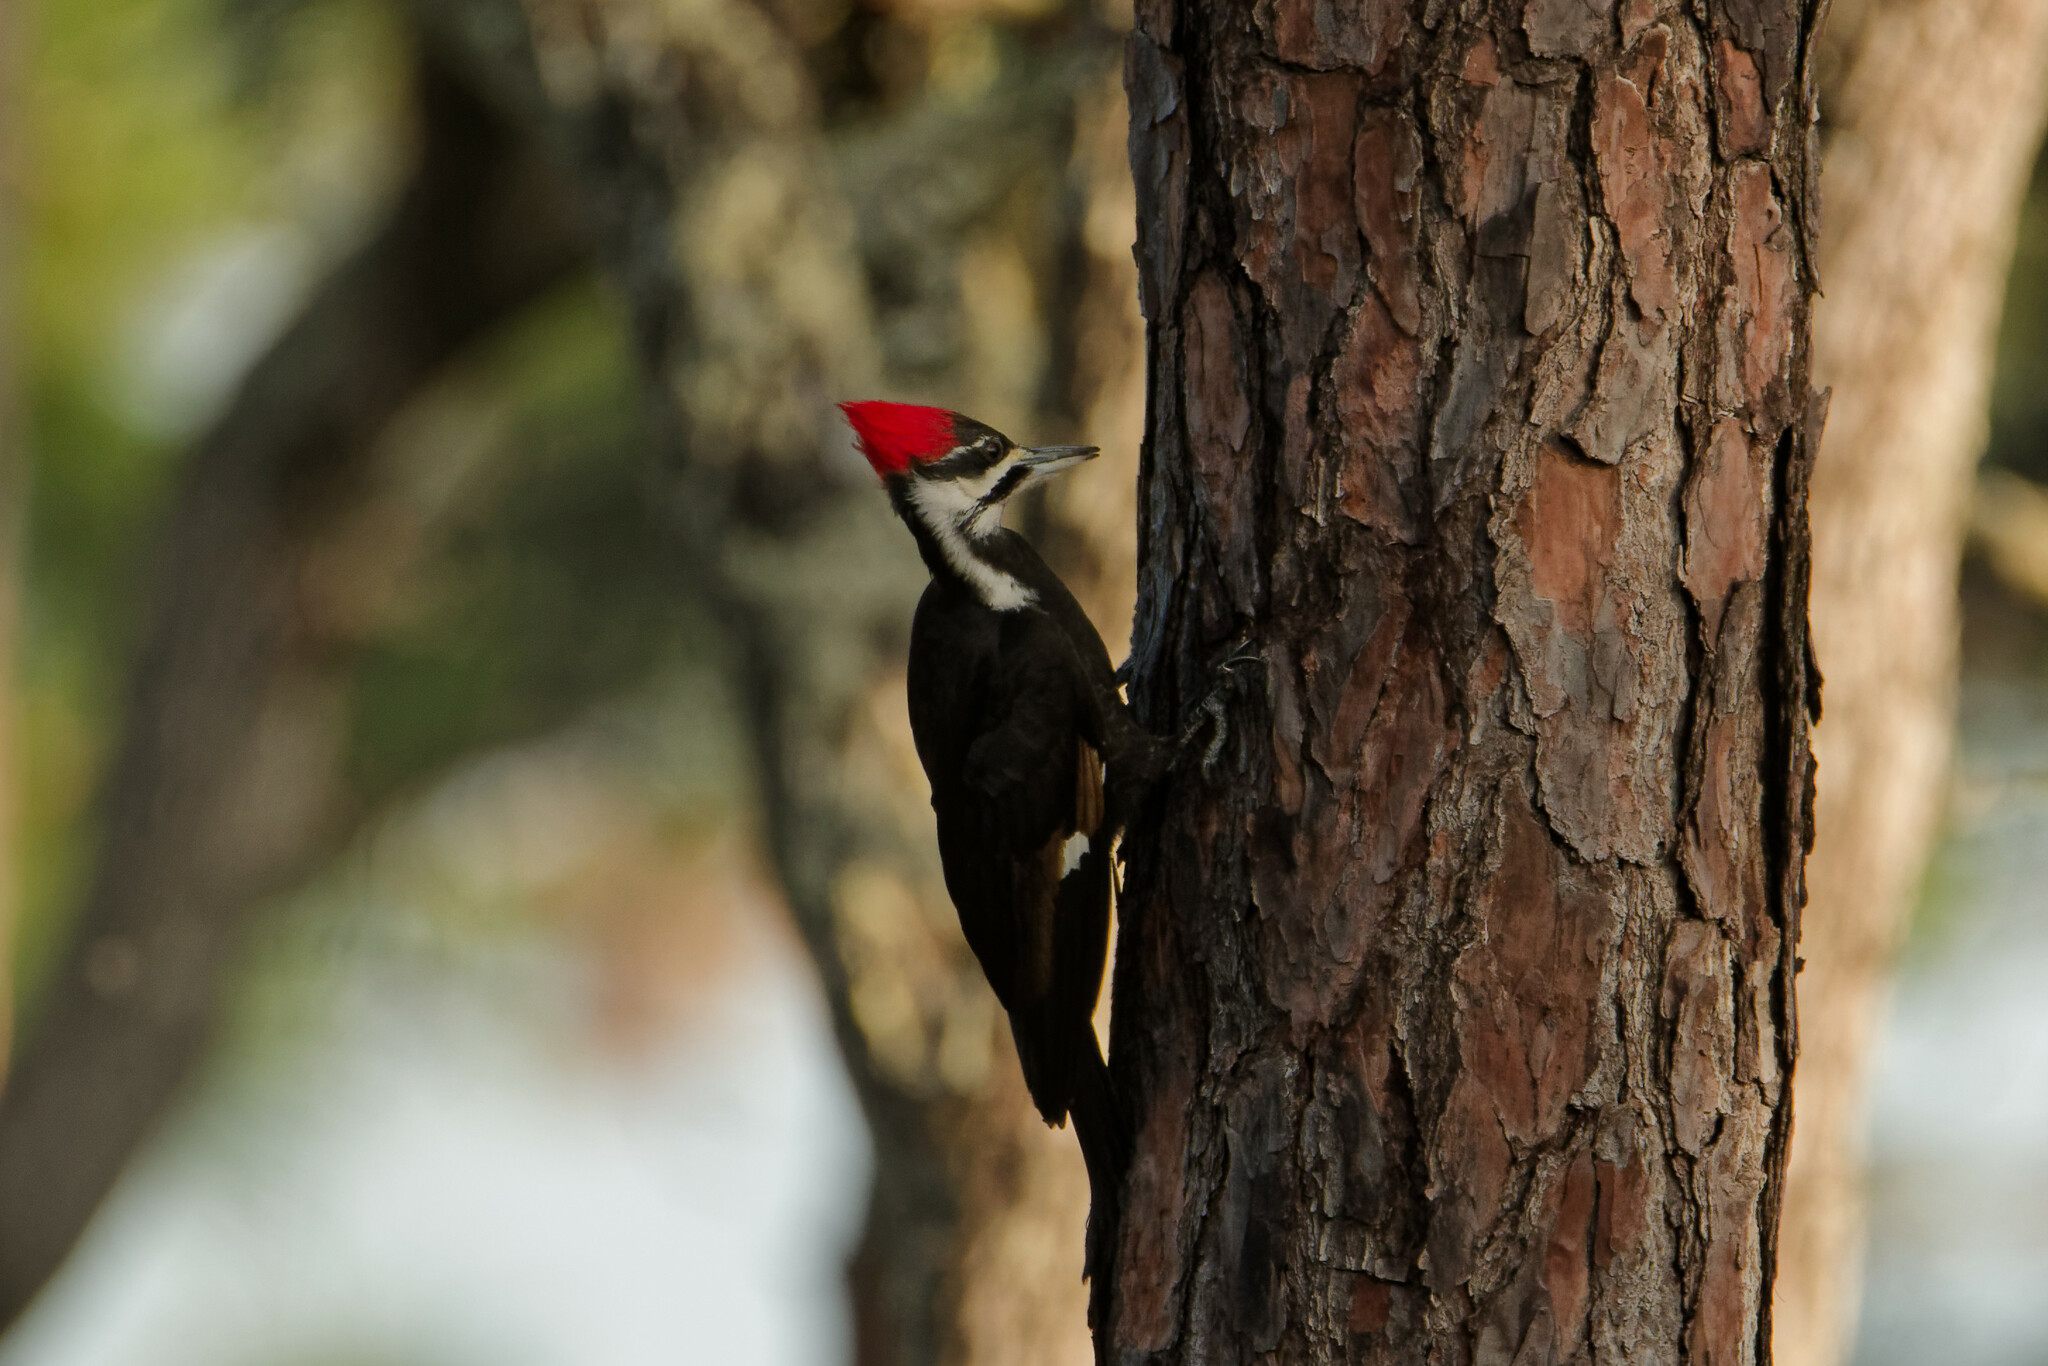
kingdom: Animalia
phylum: Chordata
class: Aves
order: Piciformes
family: Picidae
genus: Dryocopus
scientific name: Dryocopus pileatus
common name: Pileated woodpecker
